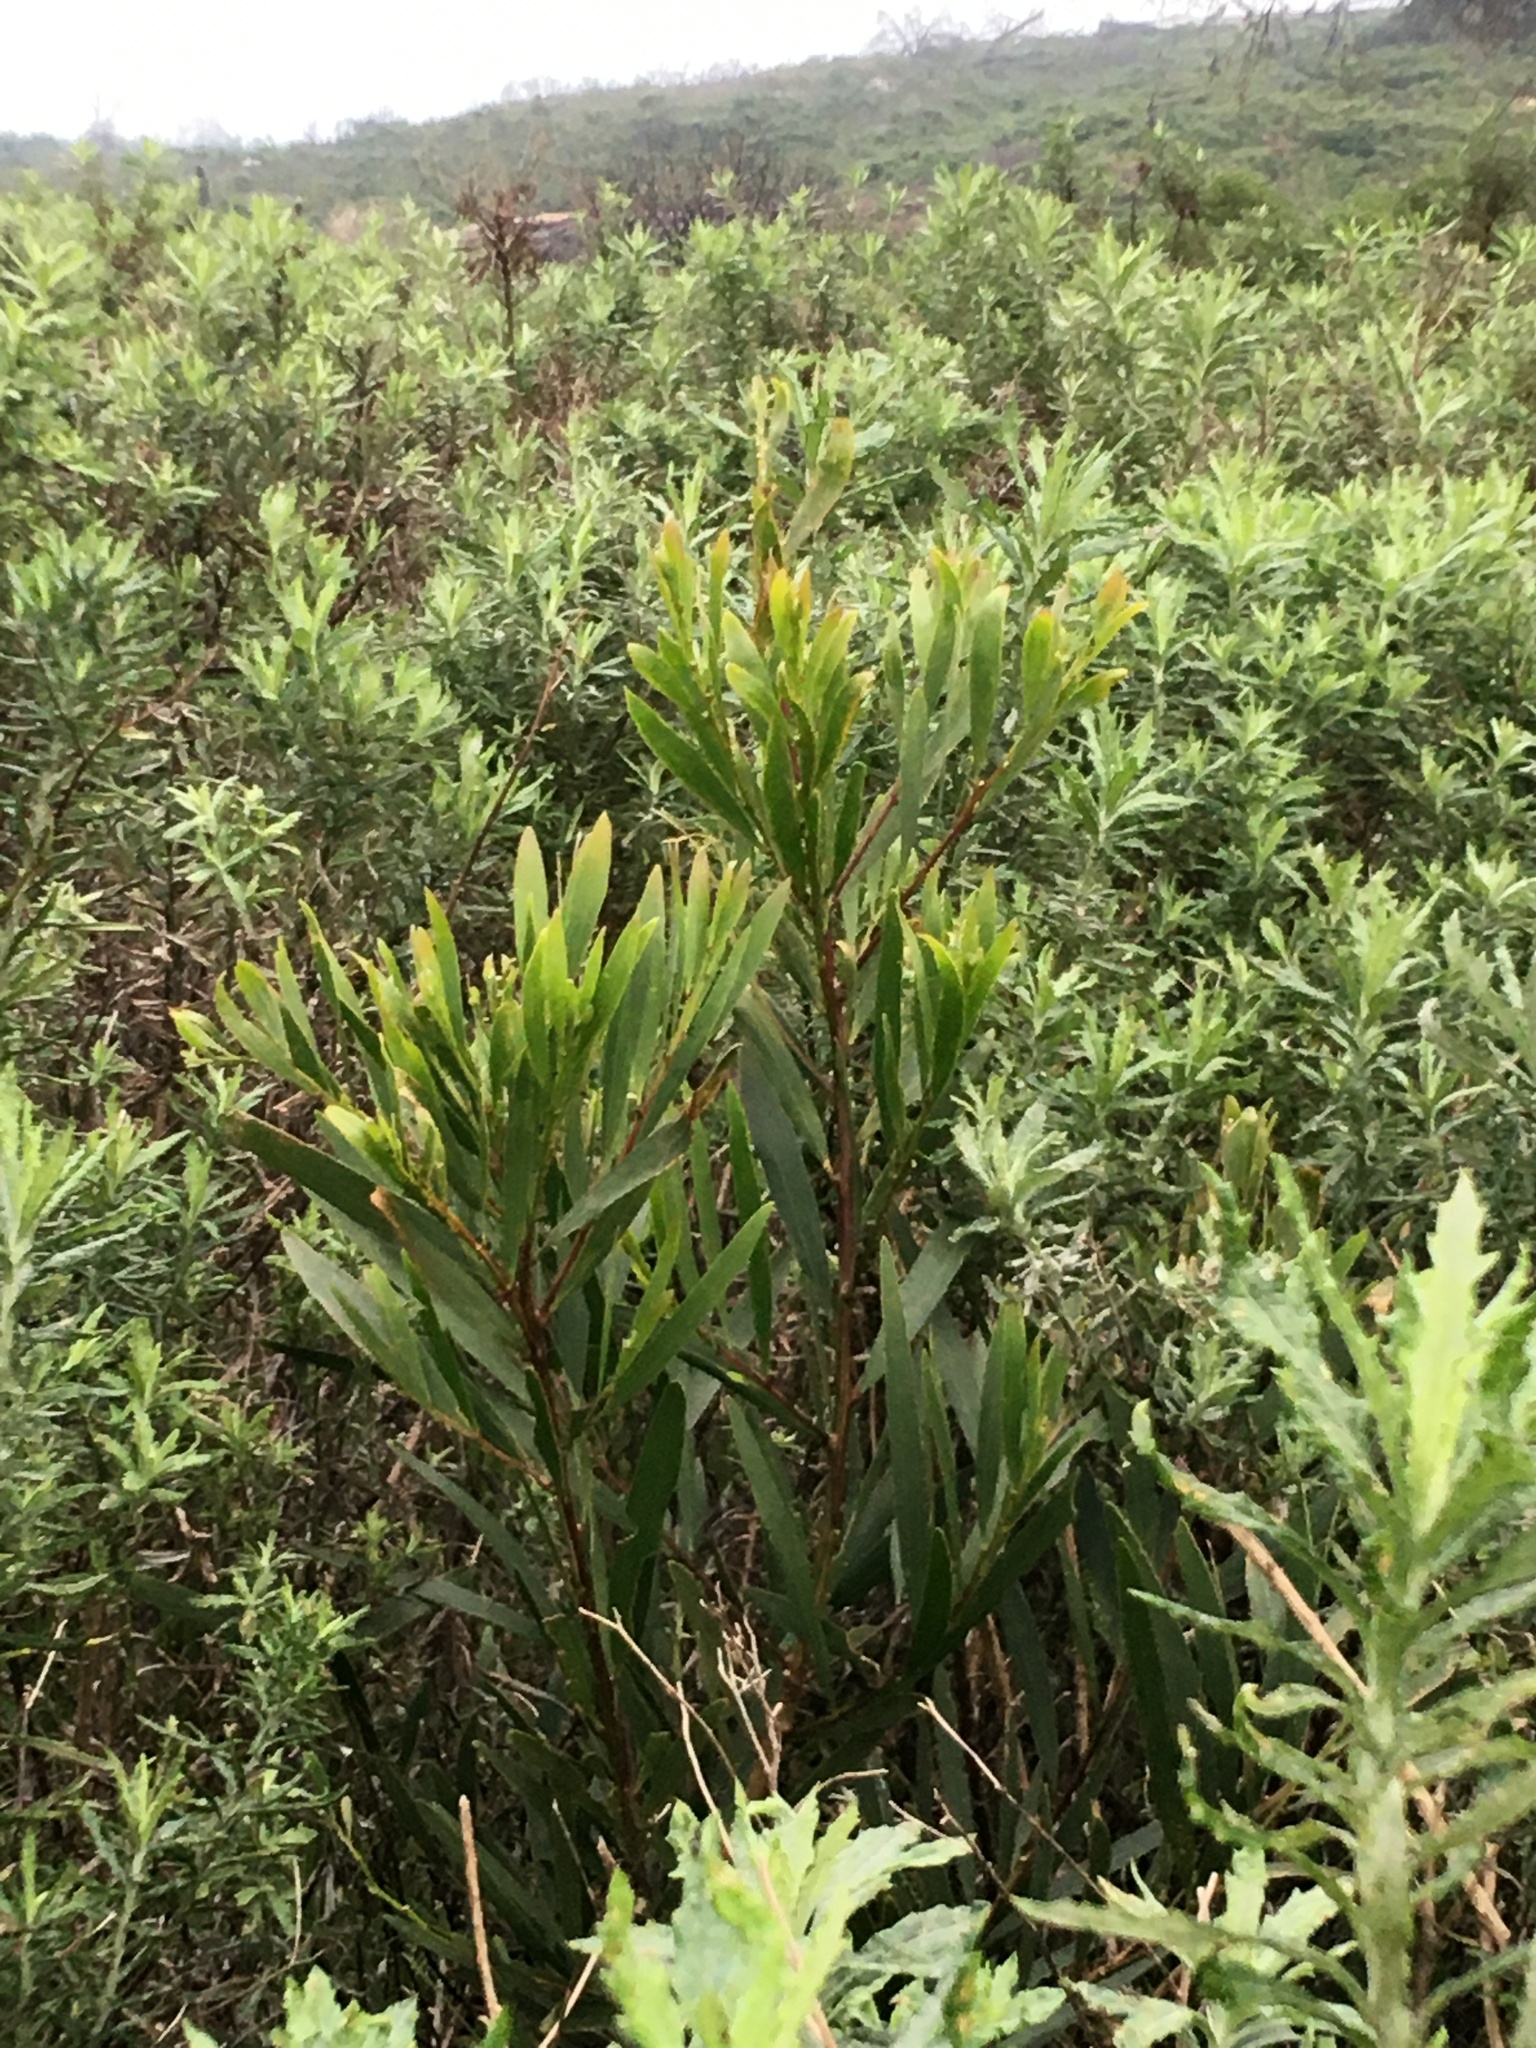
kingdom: Plantae
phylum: Tracheophyta
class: Magnoliopsida
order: Fabales
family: Fabaceae
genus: Acacia
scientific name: Acacia longifolia
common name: Sydney golden wattle
